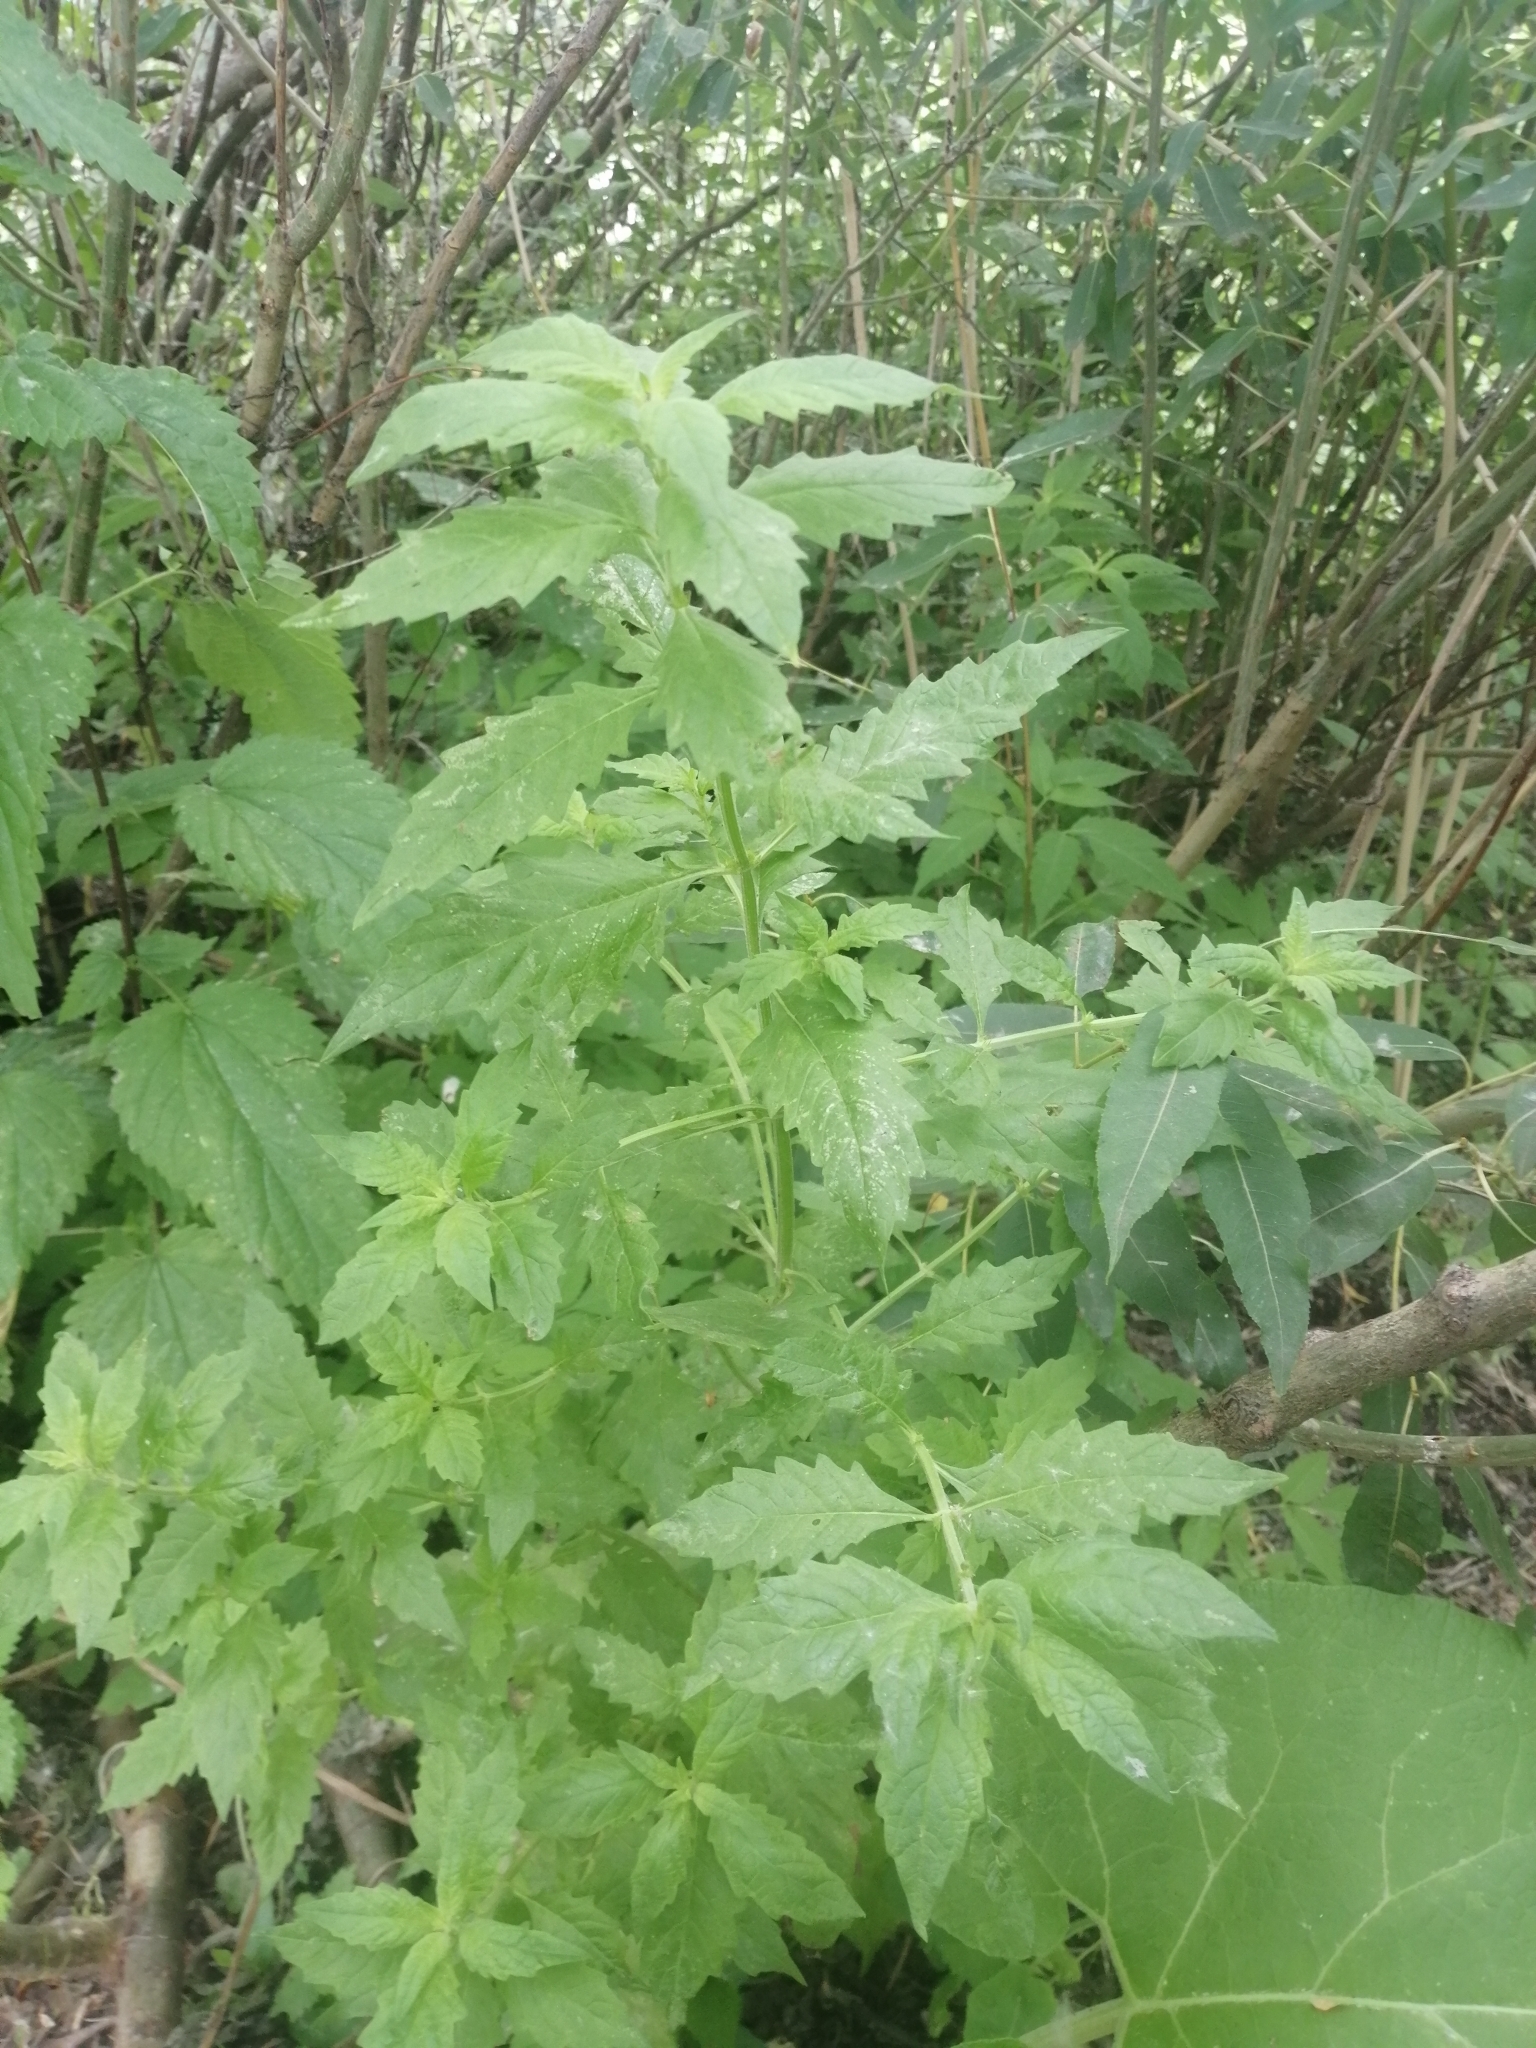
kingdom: Plantae
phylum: Tracheophyta
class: Magnoliopsida
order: Lamiales
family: Lamiaceae
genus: Lycopus
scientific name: Lycopus europaeus
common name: European bugleweed
